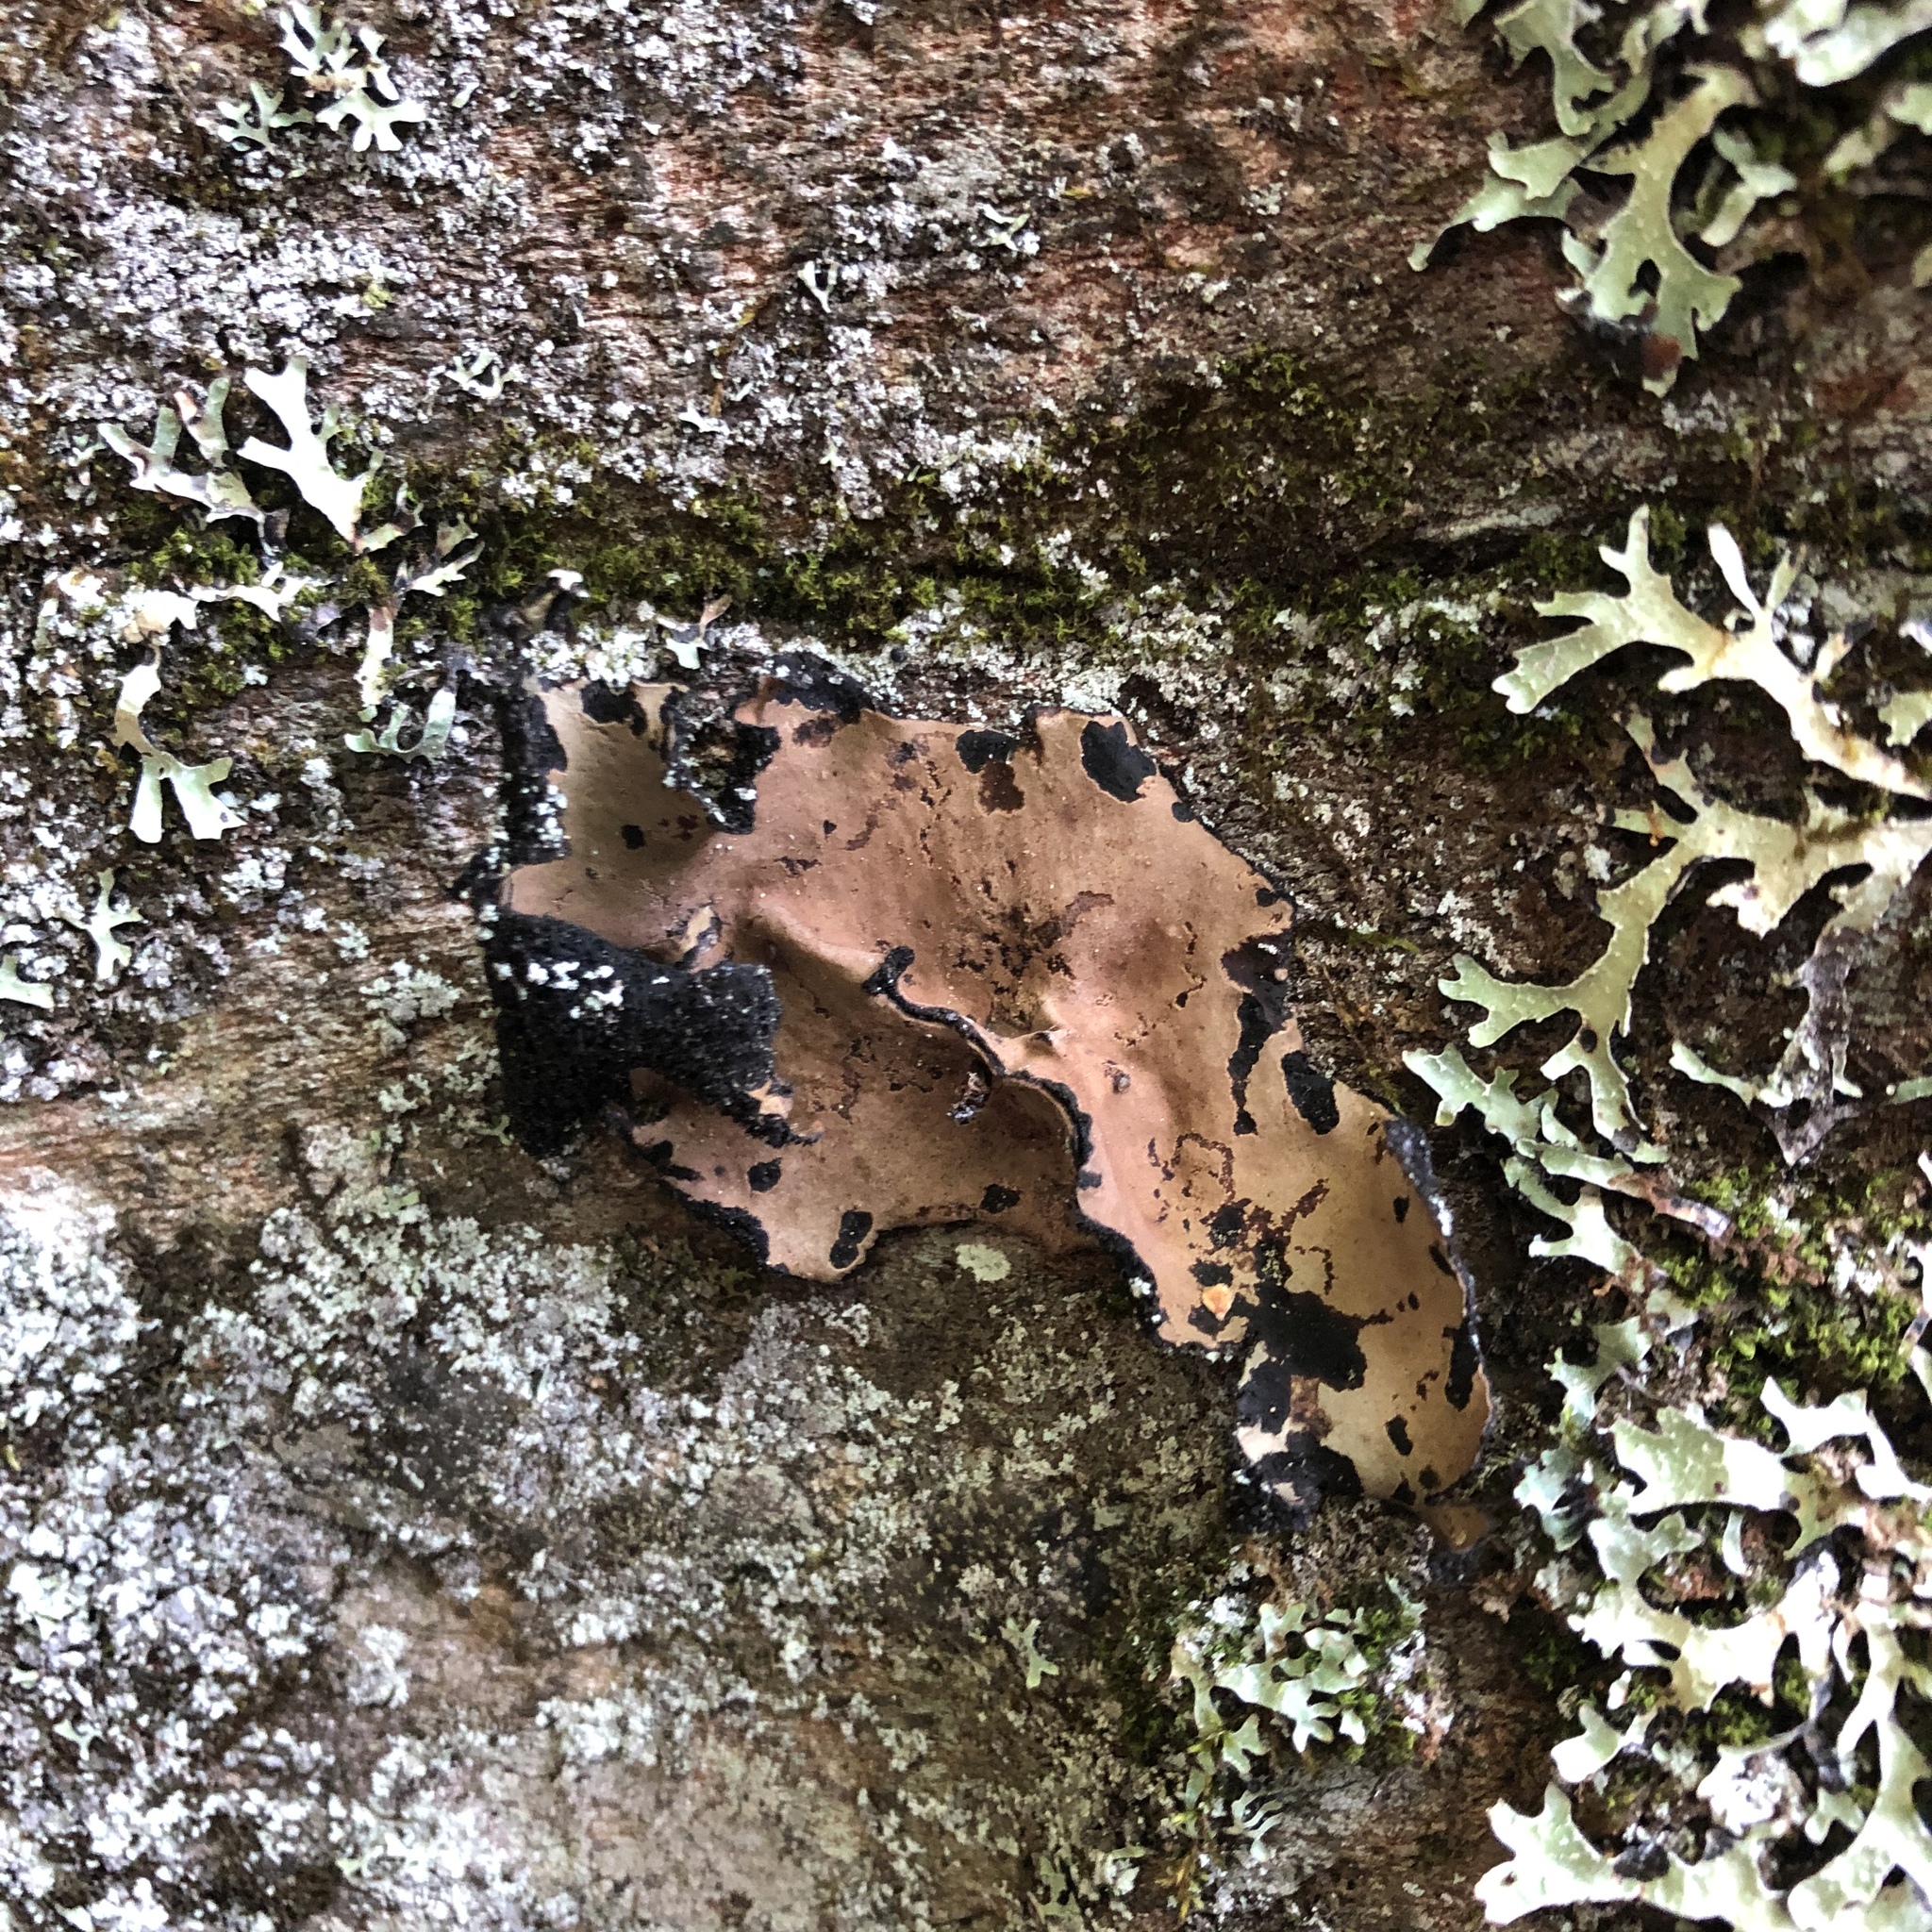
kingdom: Fungi
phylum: Ascomycota
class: Lecanoromycetes
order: Umbilicariales
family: Umbilicariaceae
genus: Umbilicaria
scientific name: Umbilicaria mammulata
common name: Smooth rock tripe
